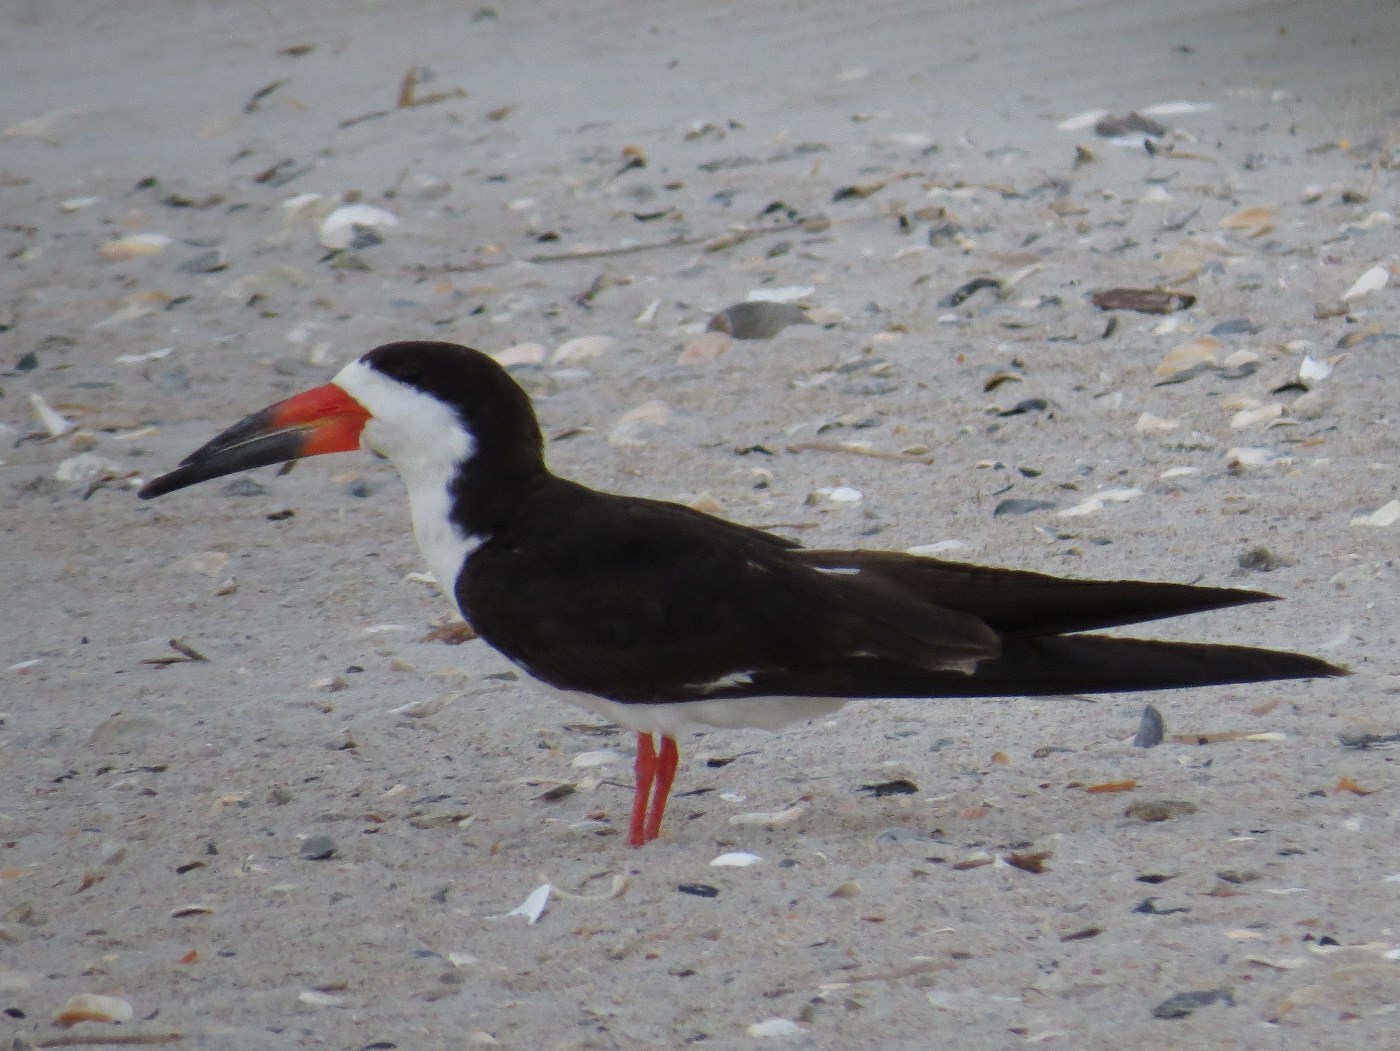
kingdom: Animalia
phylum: Chordata
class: Aves
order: Charadriiformes
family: Laridae
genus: Rynchops
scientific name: Rynchops niger
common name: Black skimmer
